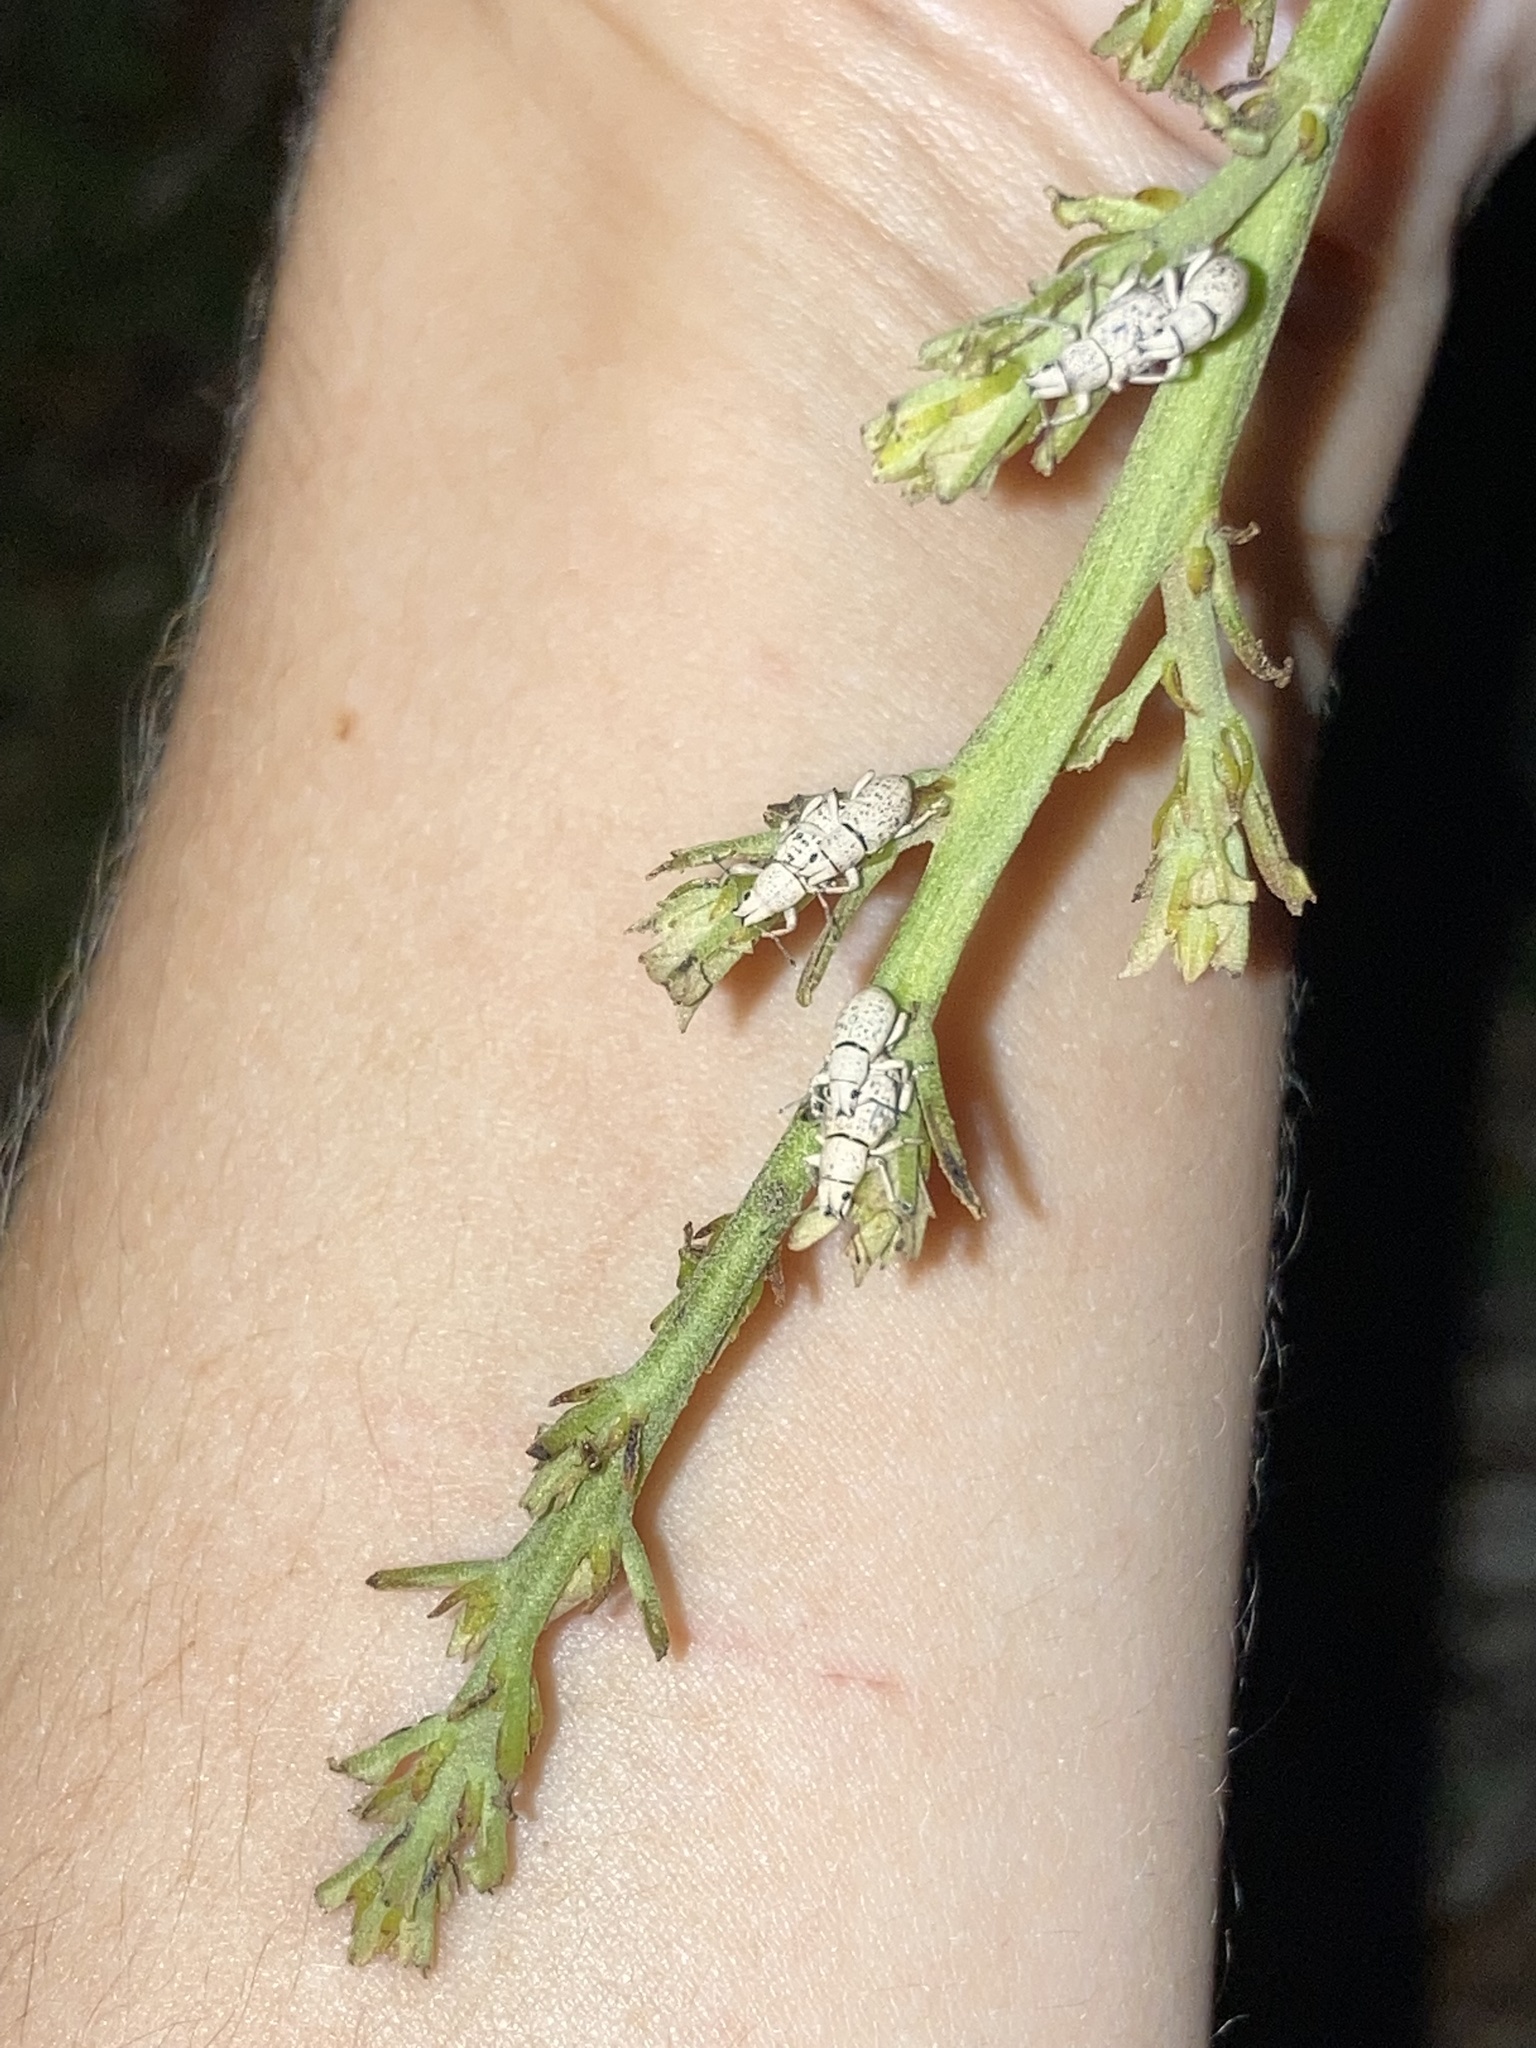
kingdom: Animalia
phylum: Arthropoda
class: Insecta
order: Coleoptera
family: Curculionidae
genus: Artipus
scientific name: Artipus floridanus
